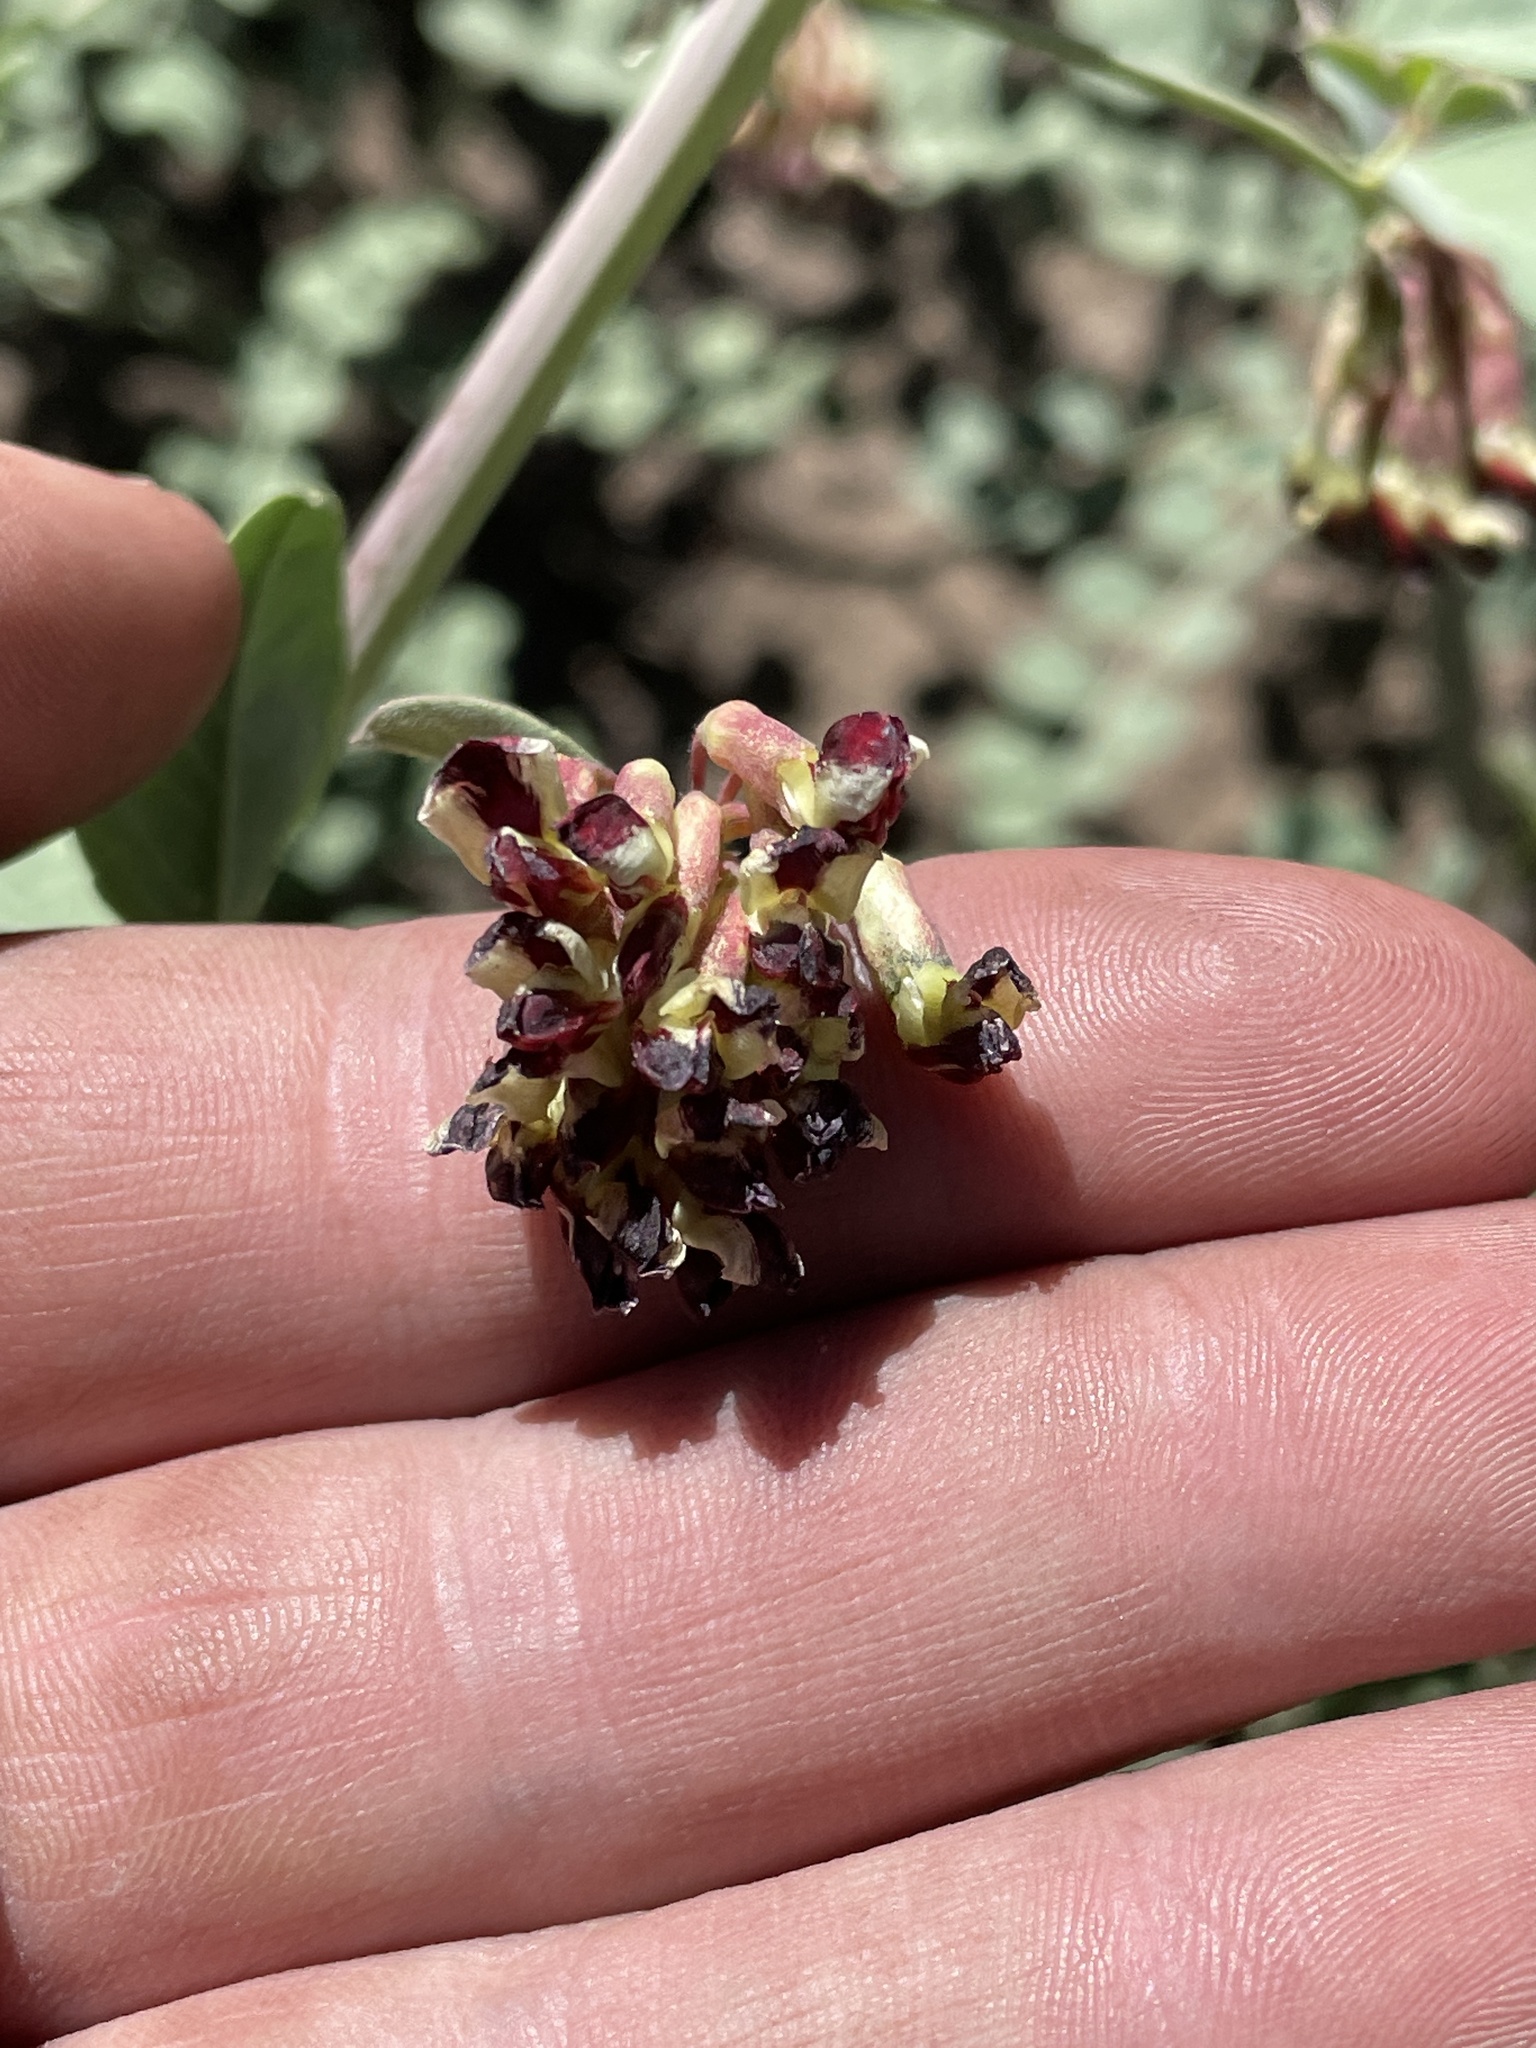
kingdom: Plantae
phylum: Tracheophyta
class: Magnoliopsida
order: Fabales
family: Fabaceae
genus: Hosackia
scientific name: Hosackia crassifolia
